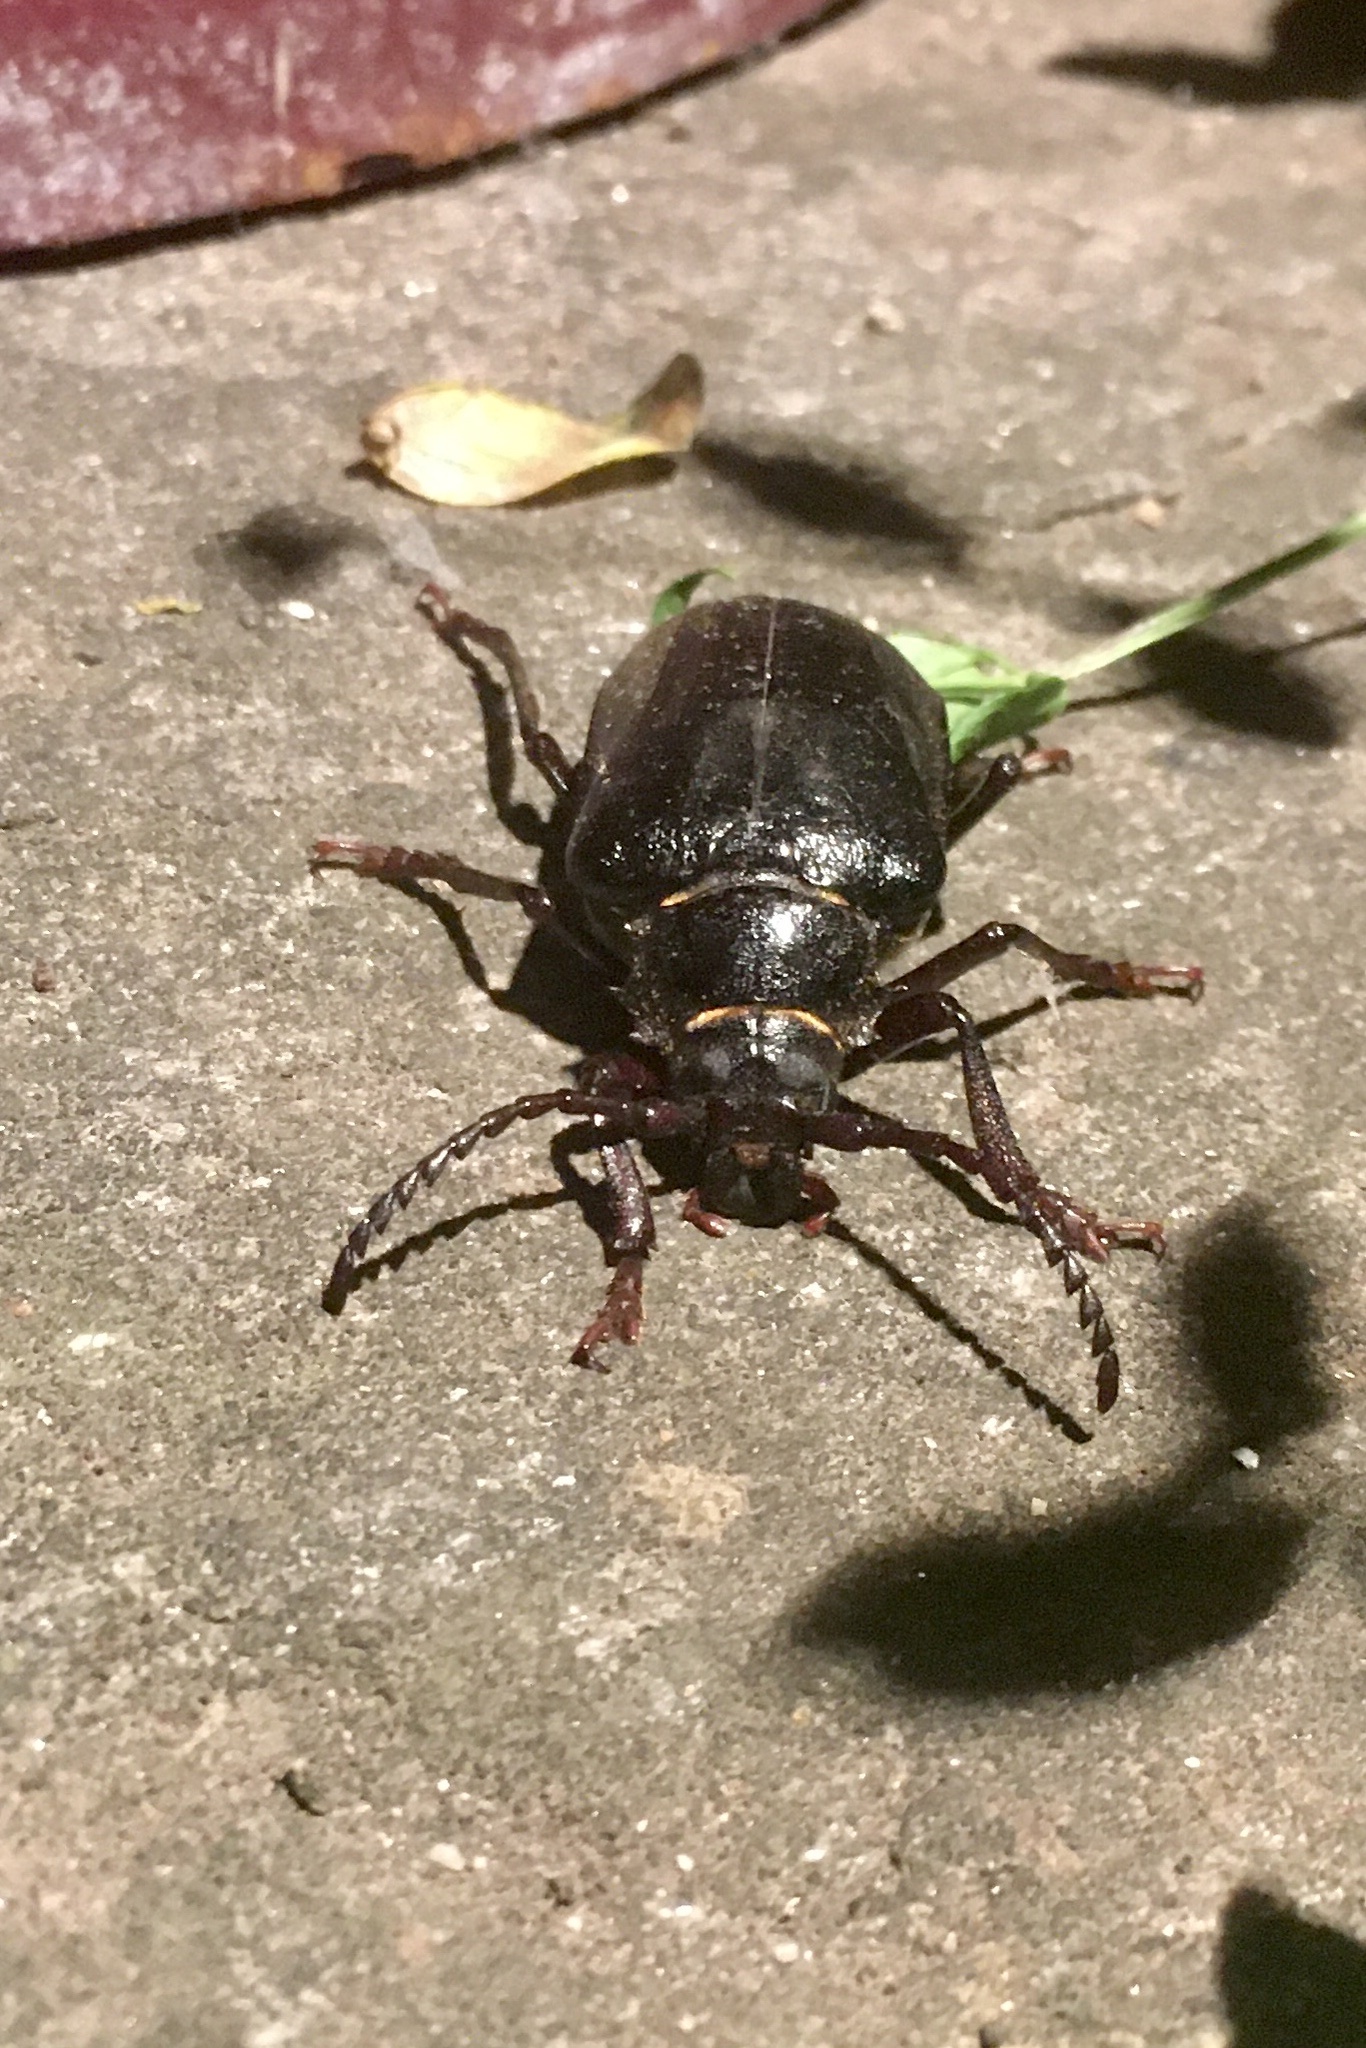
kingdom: Animalia
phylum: Arthropoda
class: Insecta
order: Coleoptera
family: Cerambycidae
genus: Prionus
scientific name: Prionus coriarius
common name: Tanner beetle
